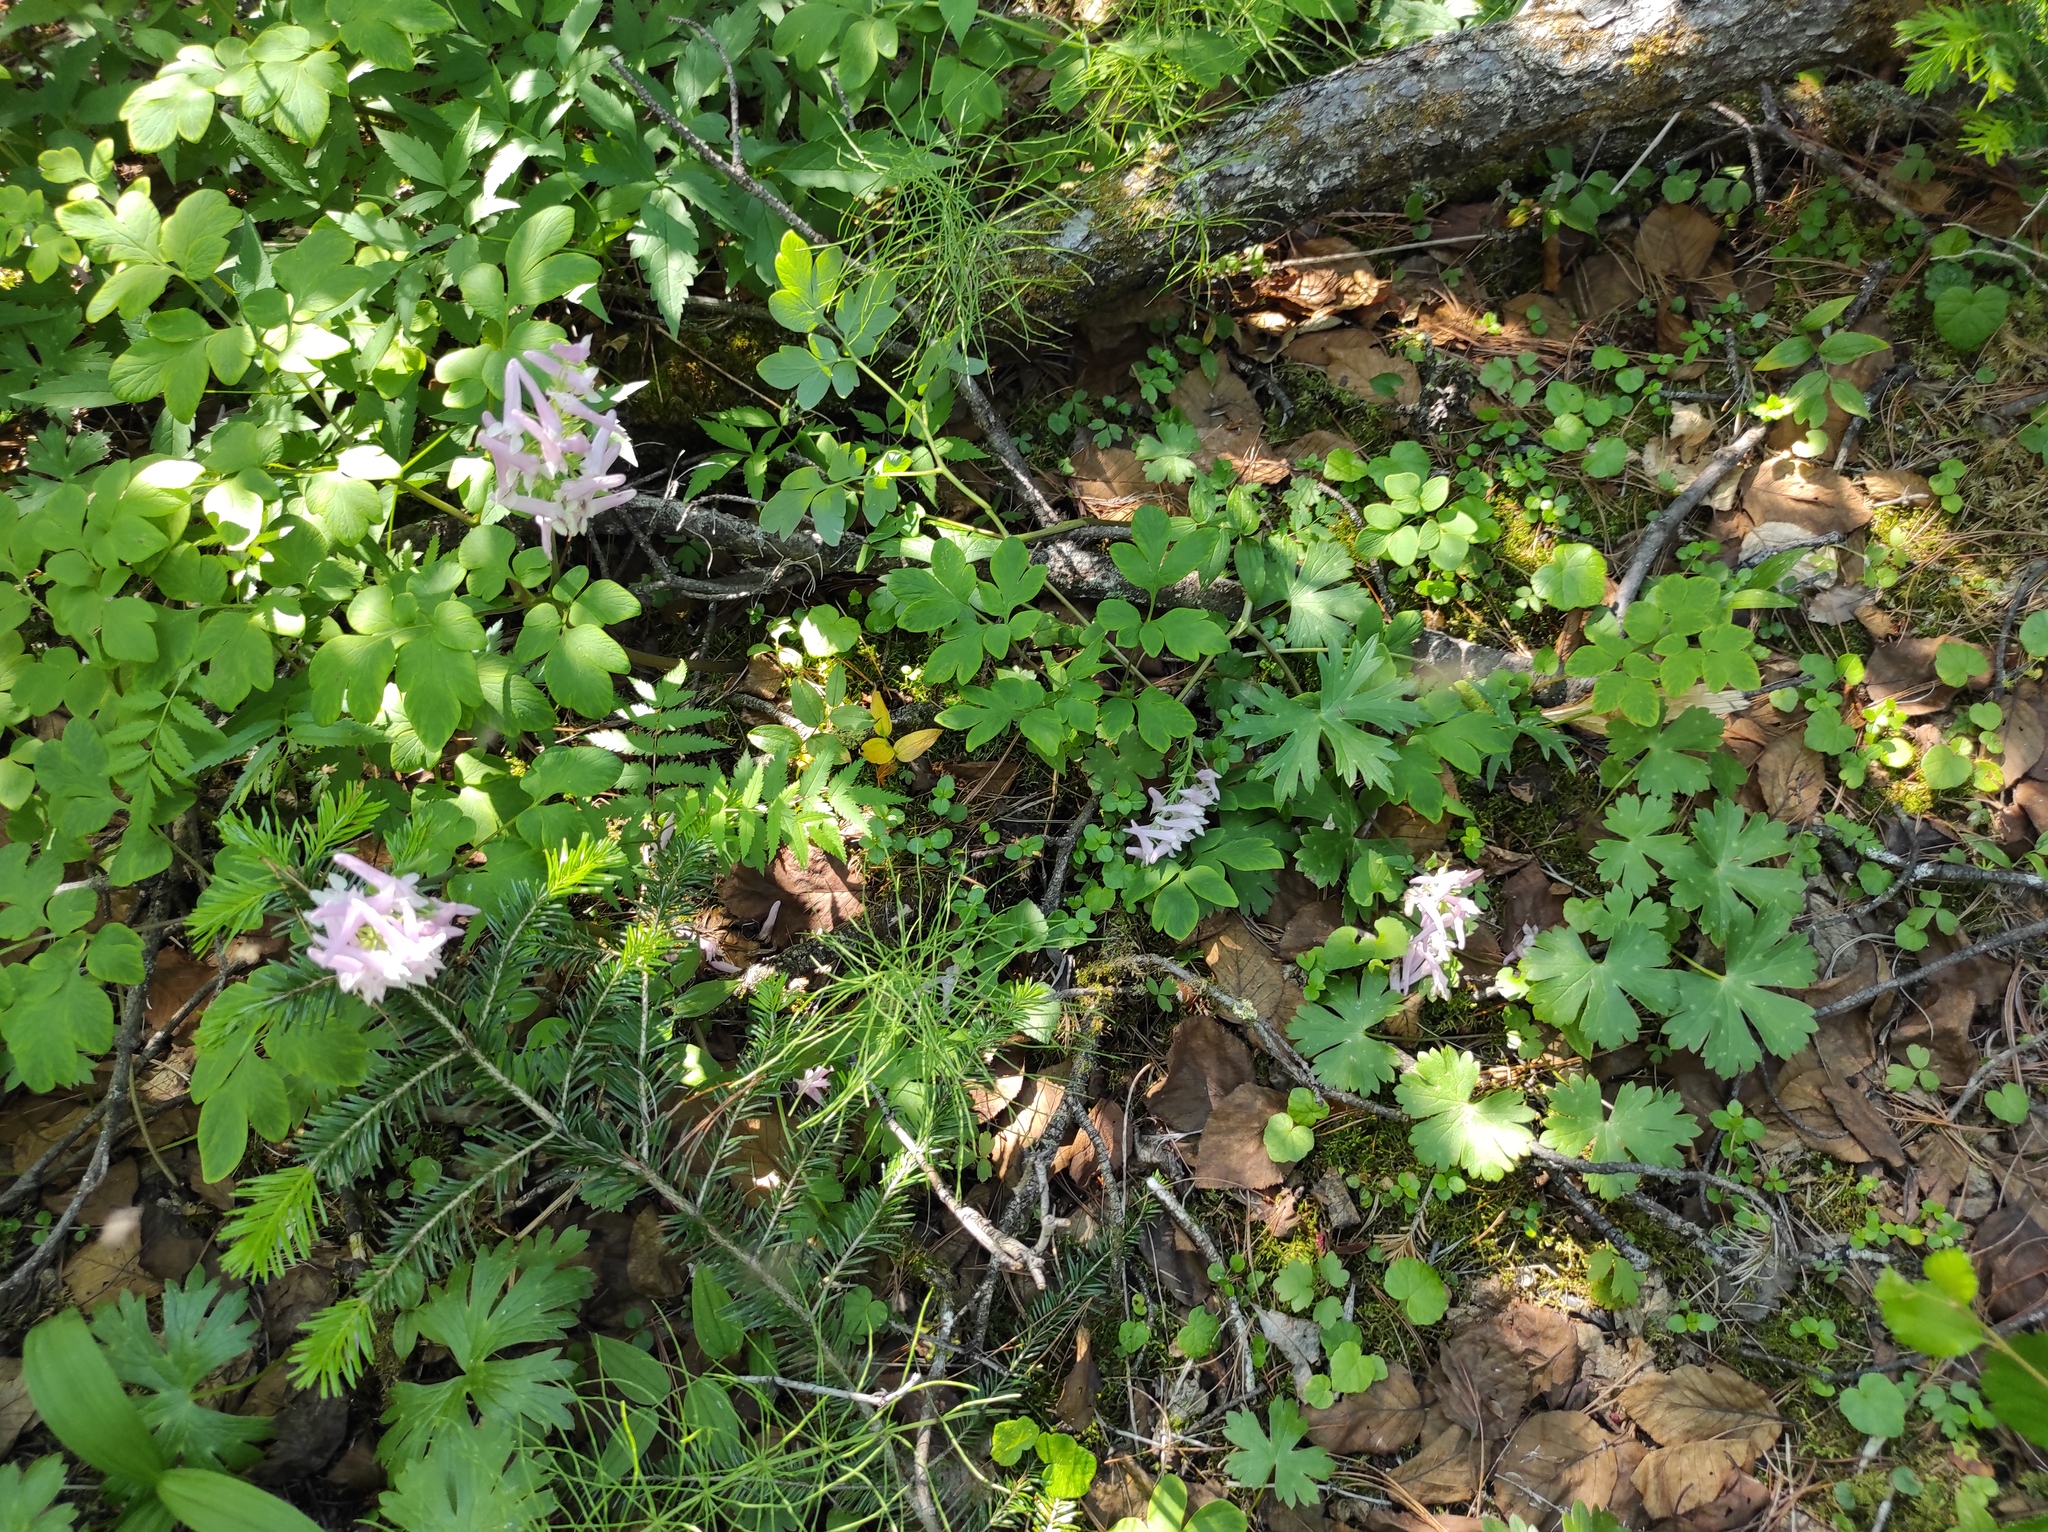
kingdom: Plantae
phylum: Tracheophyta
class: Pinopsida
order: Pinales
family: Pinaceae
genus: Abies
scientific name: Abies sibirica
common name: Siberian fir
